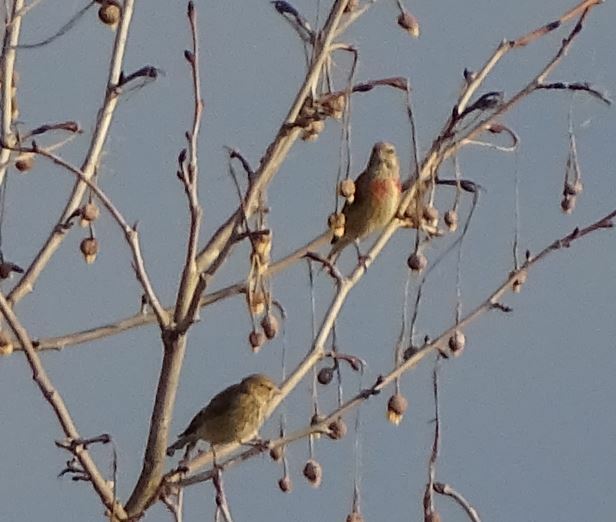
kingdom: Animalia
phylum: Chordata
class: Aves
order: Passeriformes
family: Fringillidae
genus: Linaria
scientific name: Linaria cannabina
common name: Common linnet
